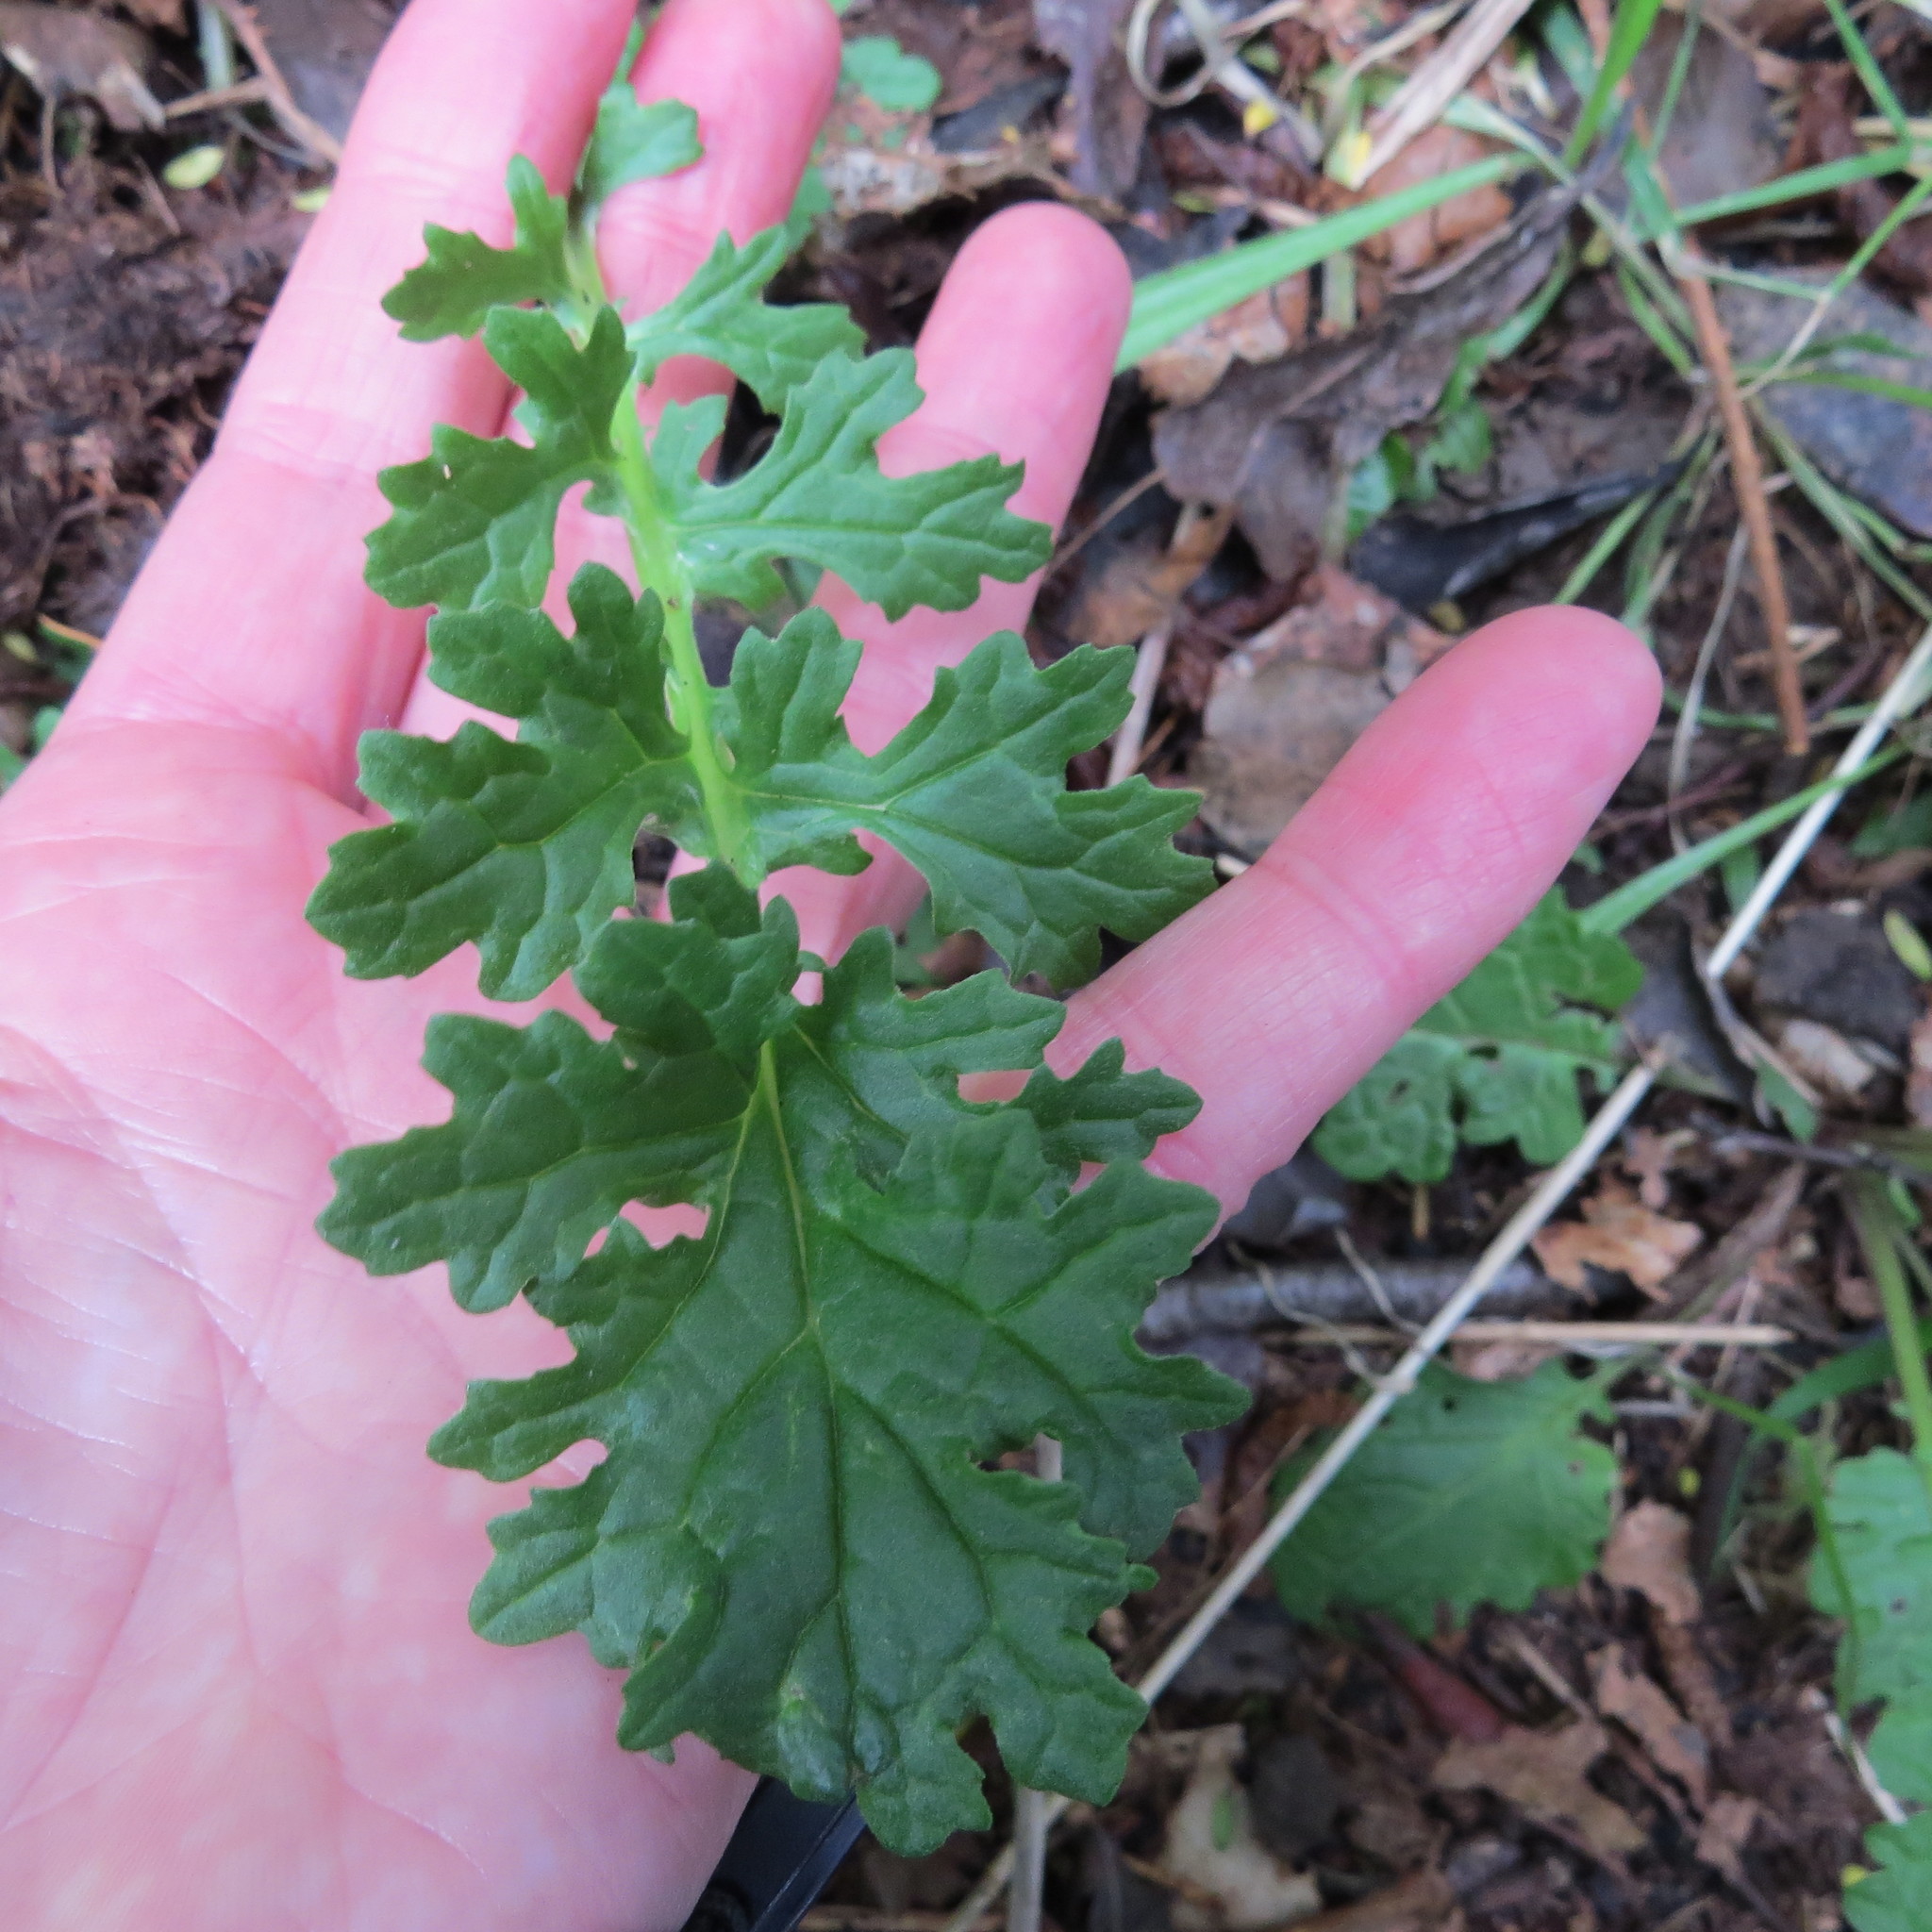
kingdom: Plantae
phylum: Tracheophyta
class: Magnoliopsida
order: Asterales
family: Asteraceae
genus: Jacobaea
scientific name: Jacobaea vulgaris
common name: Stinking willie
